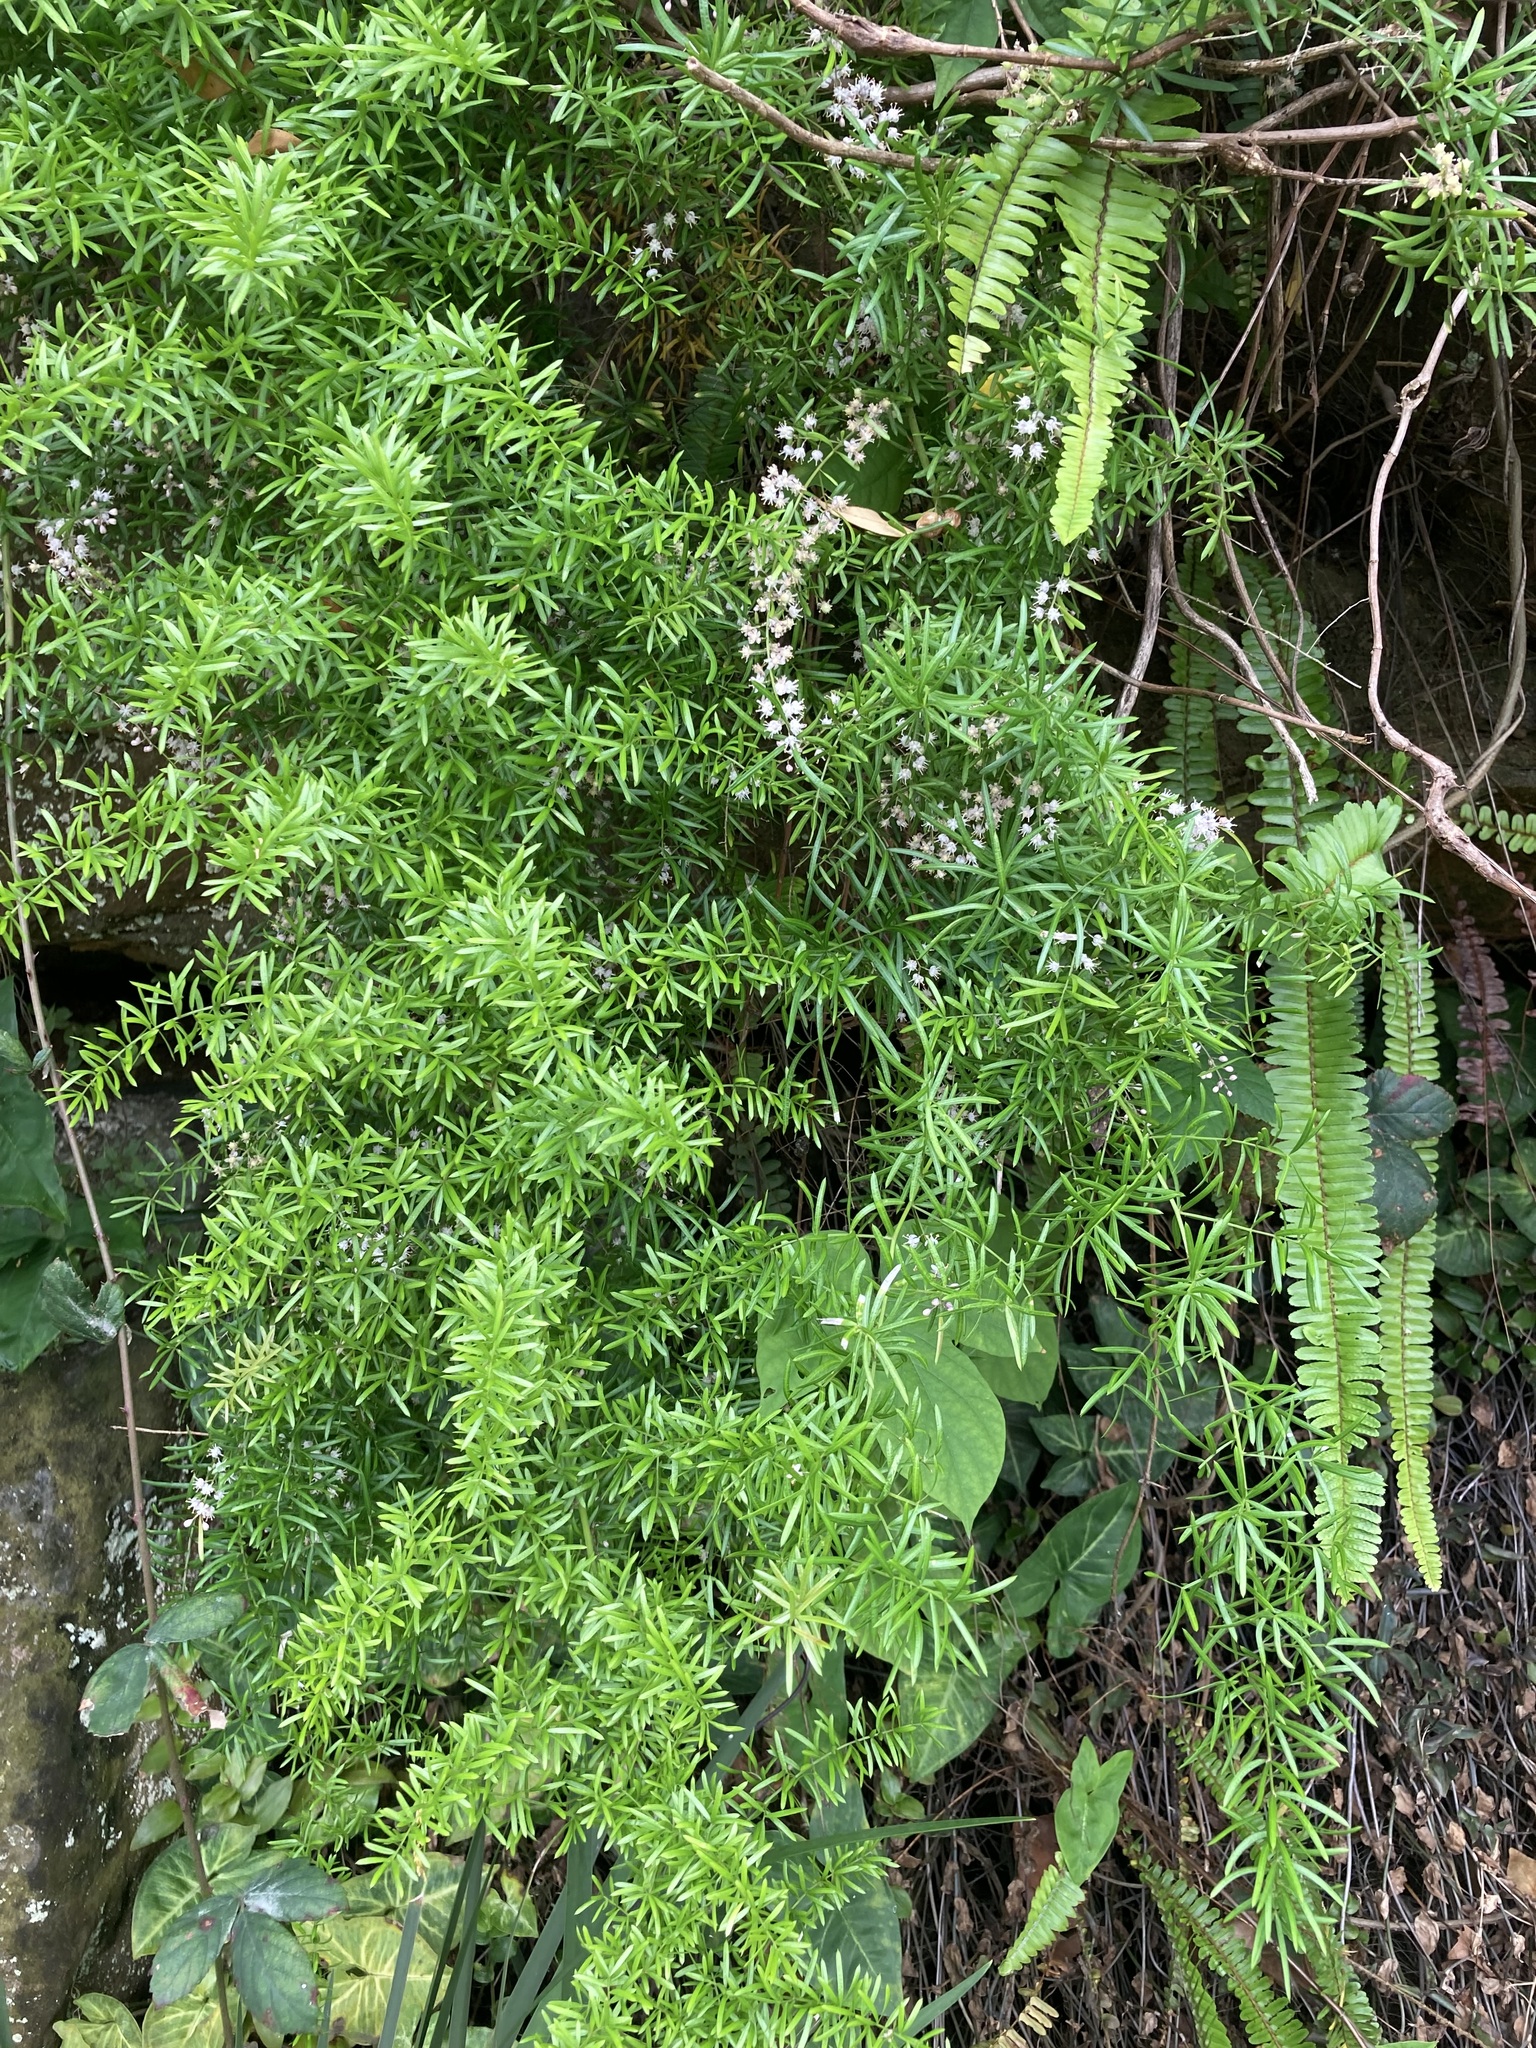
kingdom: Plantae
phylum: Tracheophyta
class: Liliopsida
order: Asparagales
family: Asparagaceae
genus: Asparagus
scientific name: Asparagus aethiopicus
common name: Sprenger's asparagus fern
